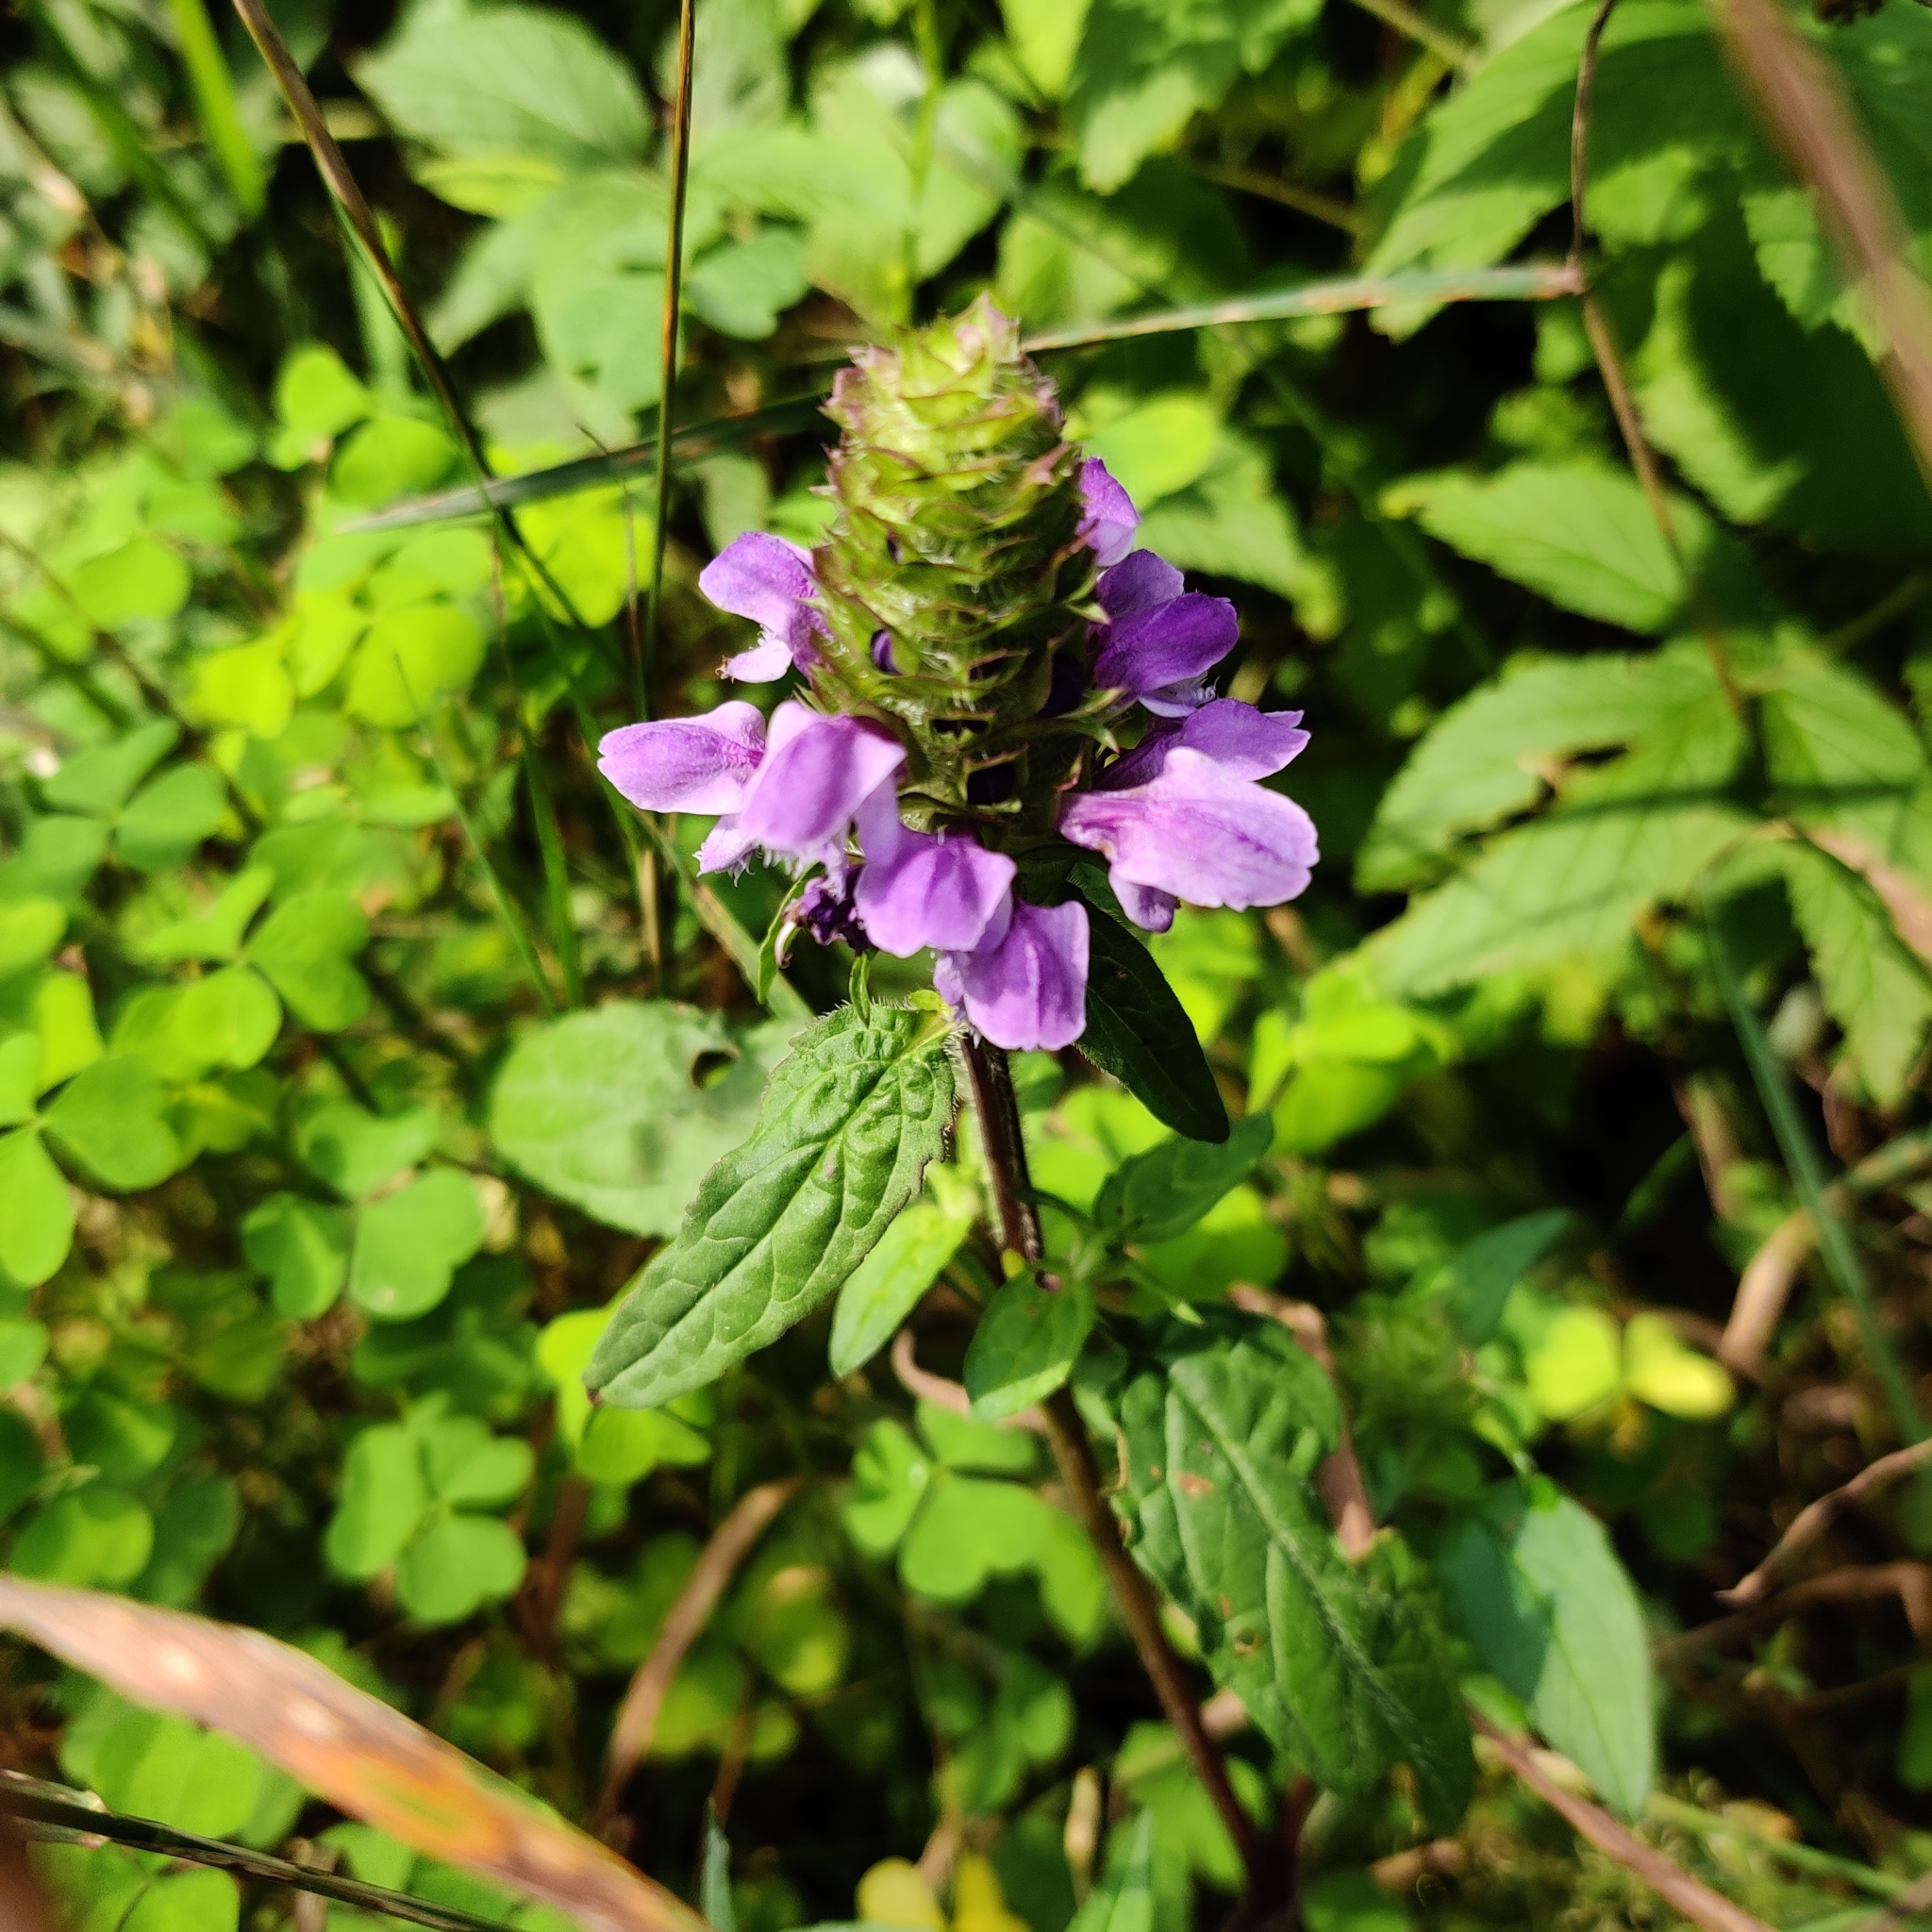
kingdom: Plantae
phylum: Tracheophyta
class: Magnoliopsida
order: Lamiales
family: Lamiaceae
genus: Prunella
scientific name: Prunella vulgaris
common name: Heal-all
